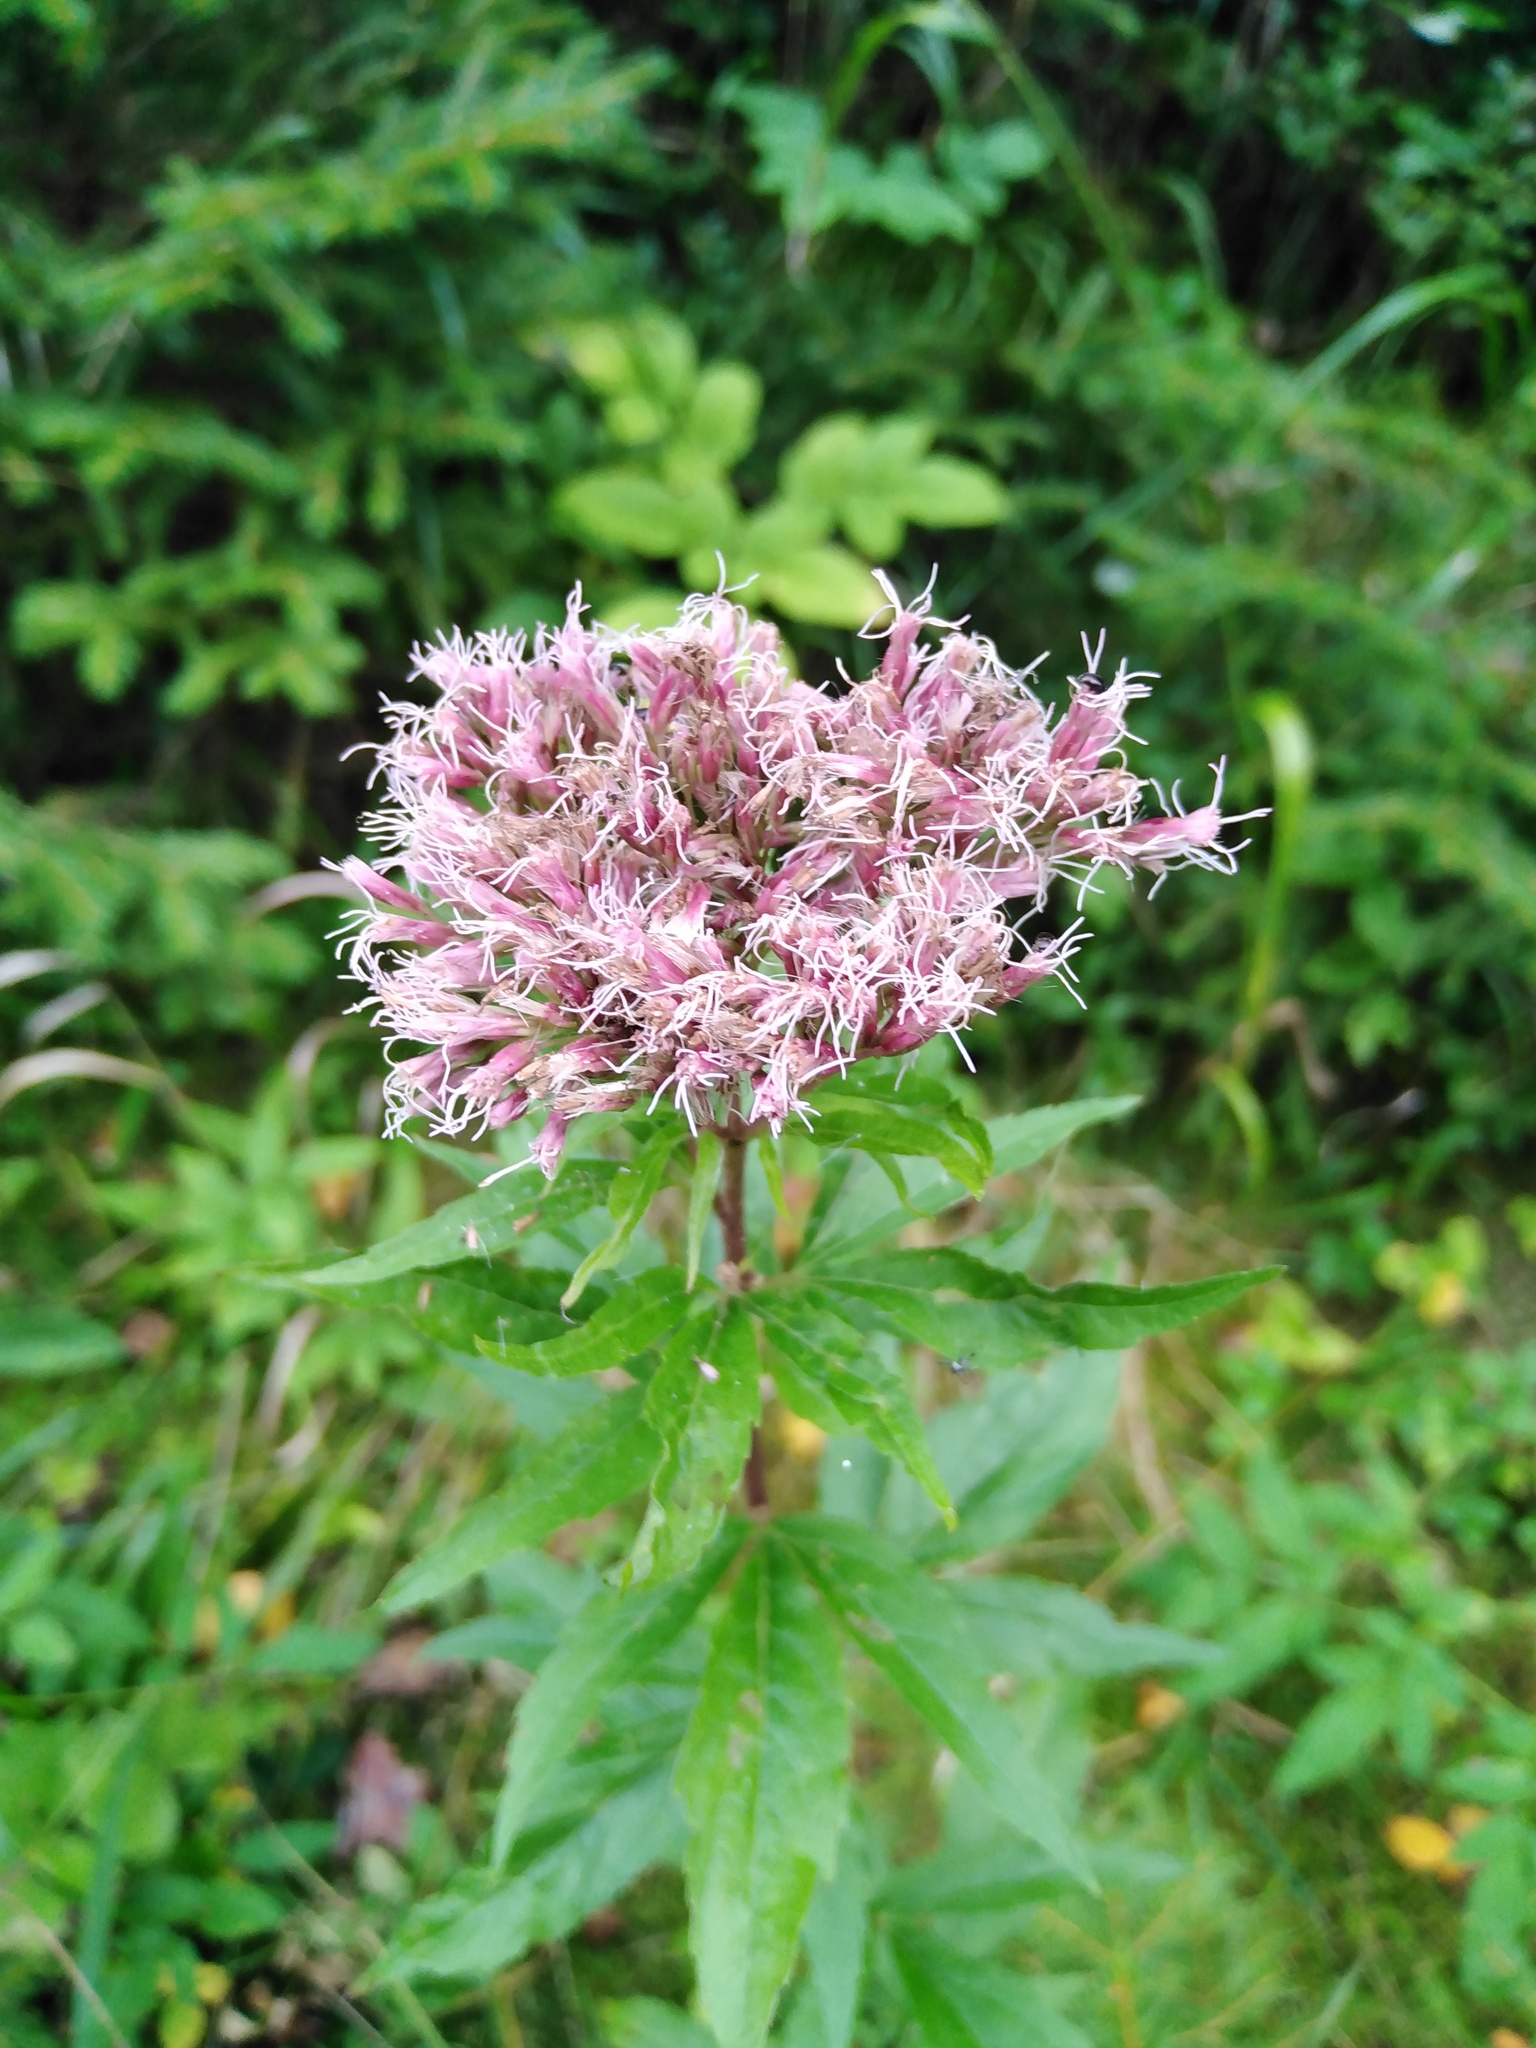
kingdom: Plantae
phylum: Tracheophyta
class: Magnoliopsida
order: Asterales
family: Asteraceae
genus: Eupatorium
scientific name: Eupatorium cannabinum
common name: Hemp-agrimony
